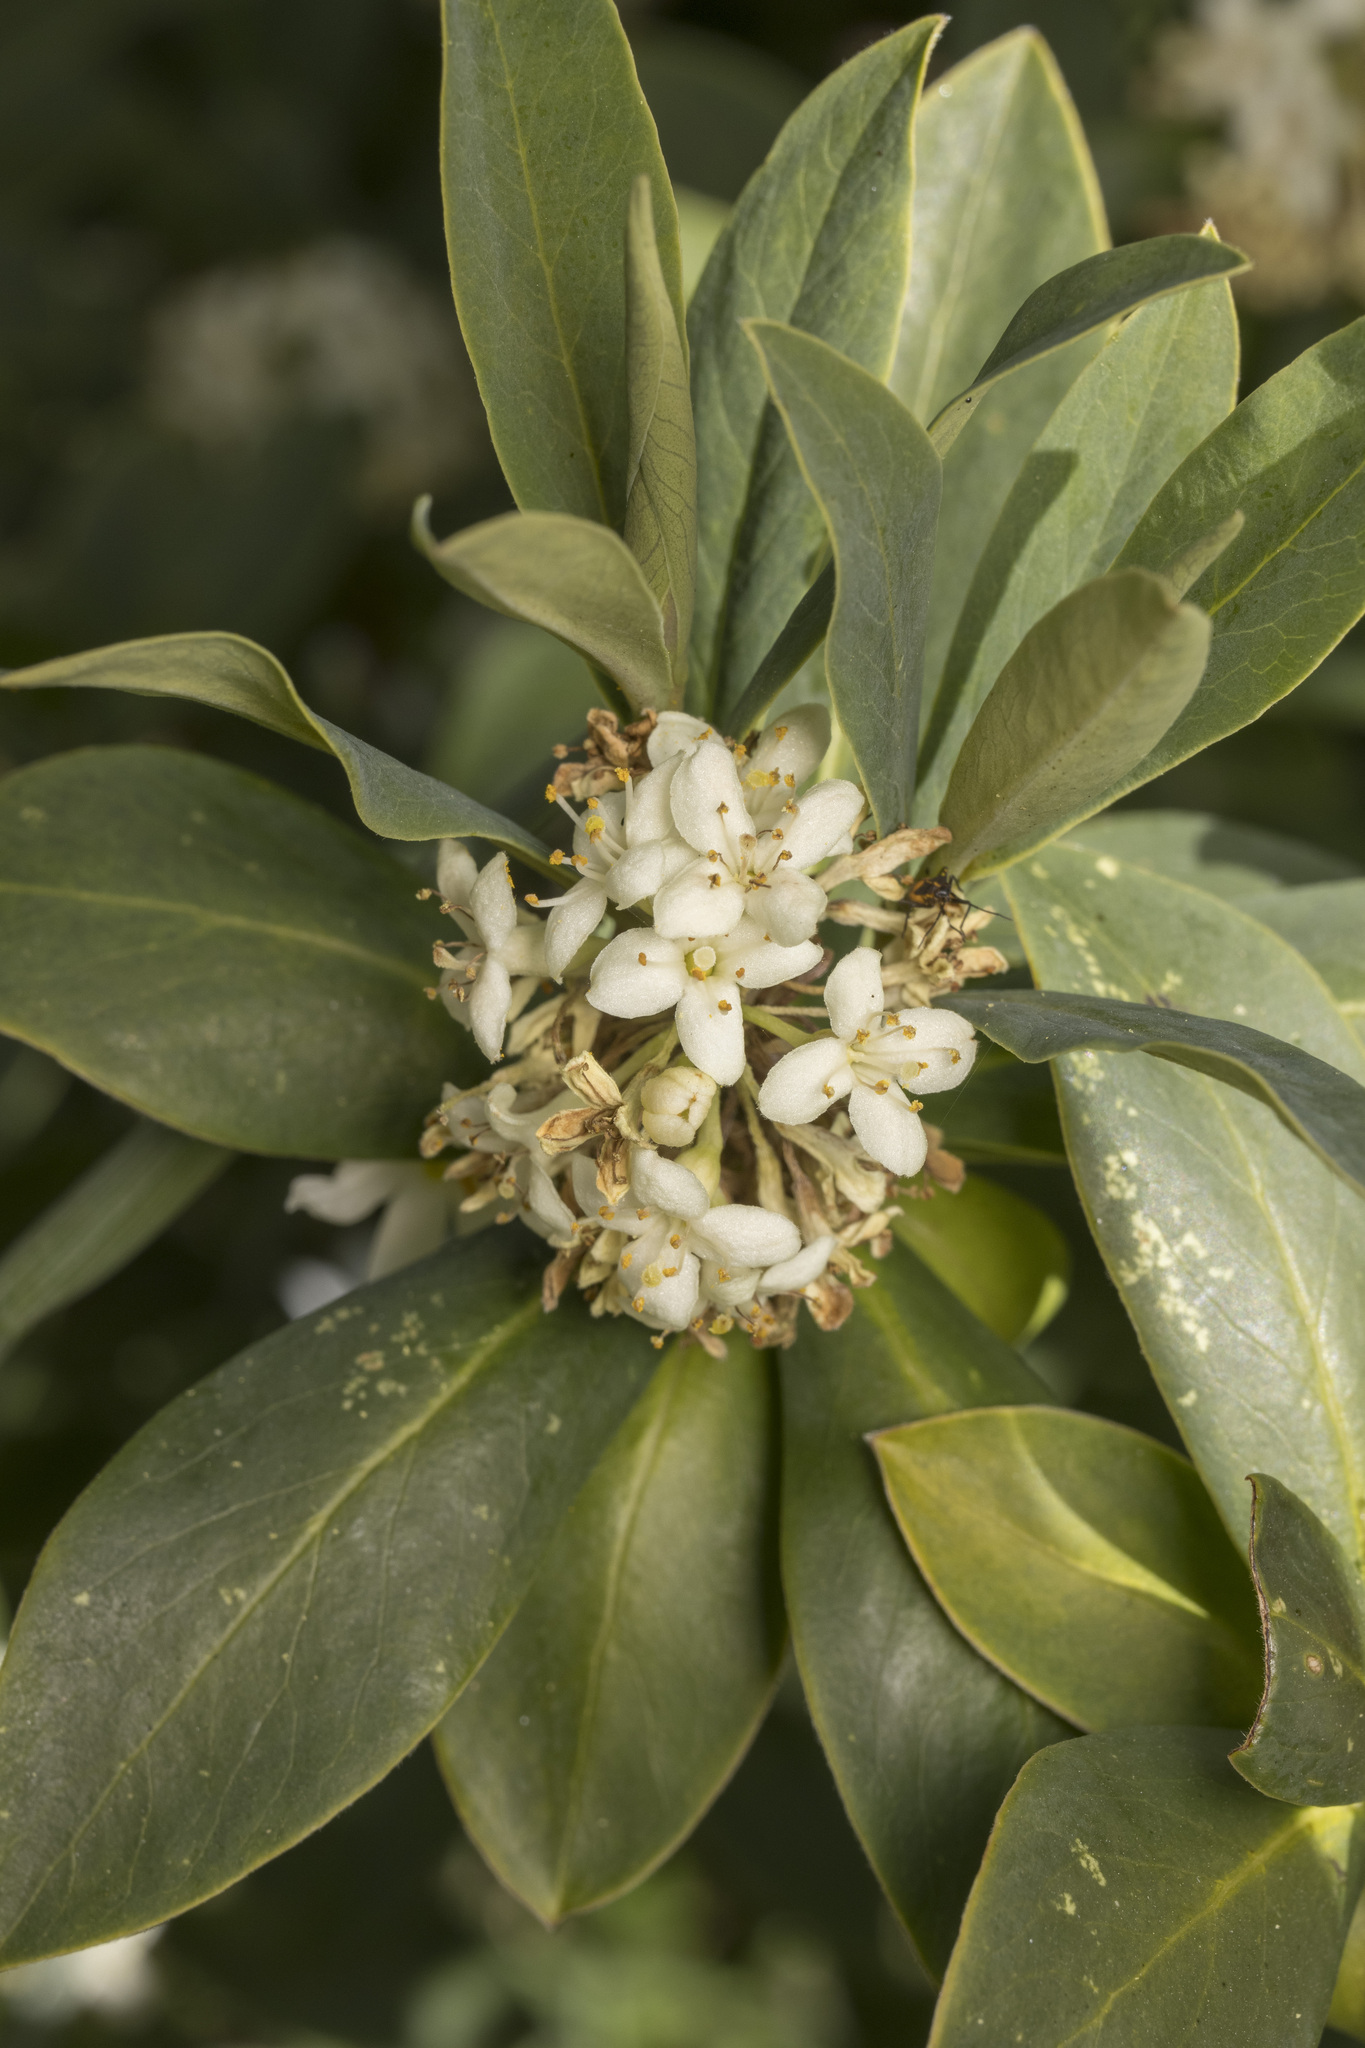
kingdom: Plantae
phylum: Tracheophyta
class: Magnoliopsida
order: Malvales
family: Thymelaeaceae
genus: Ovidia
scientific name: Ovidia andina
